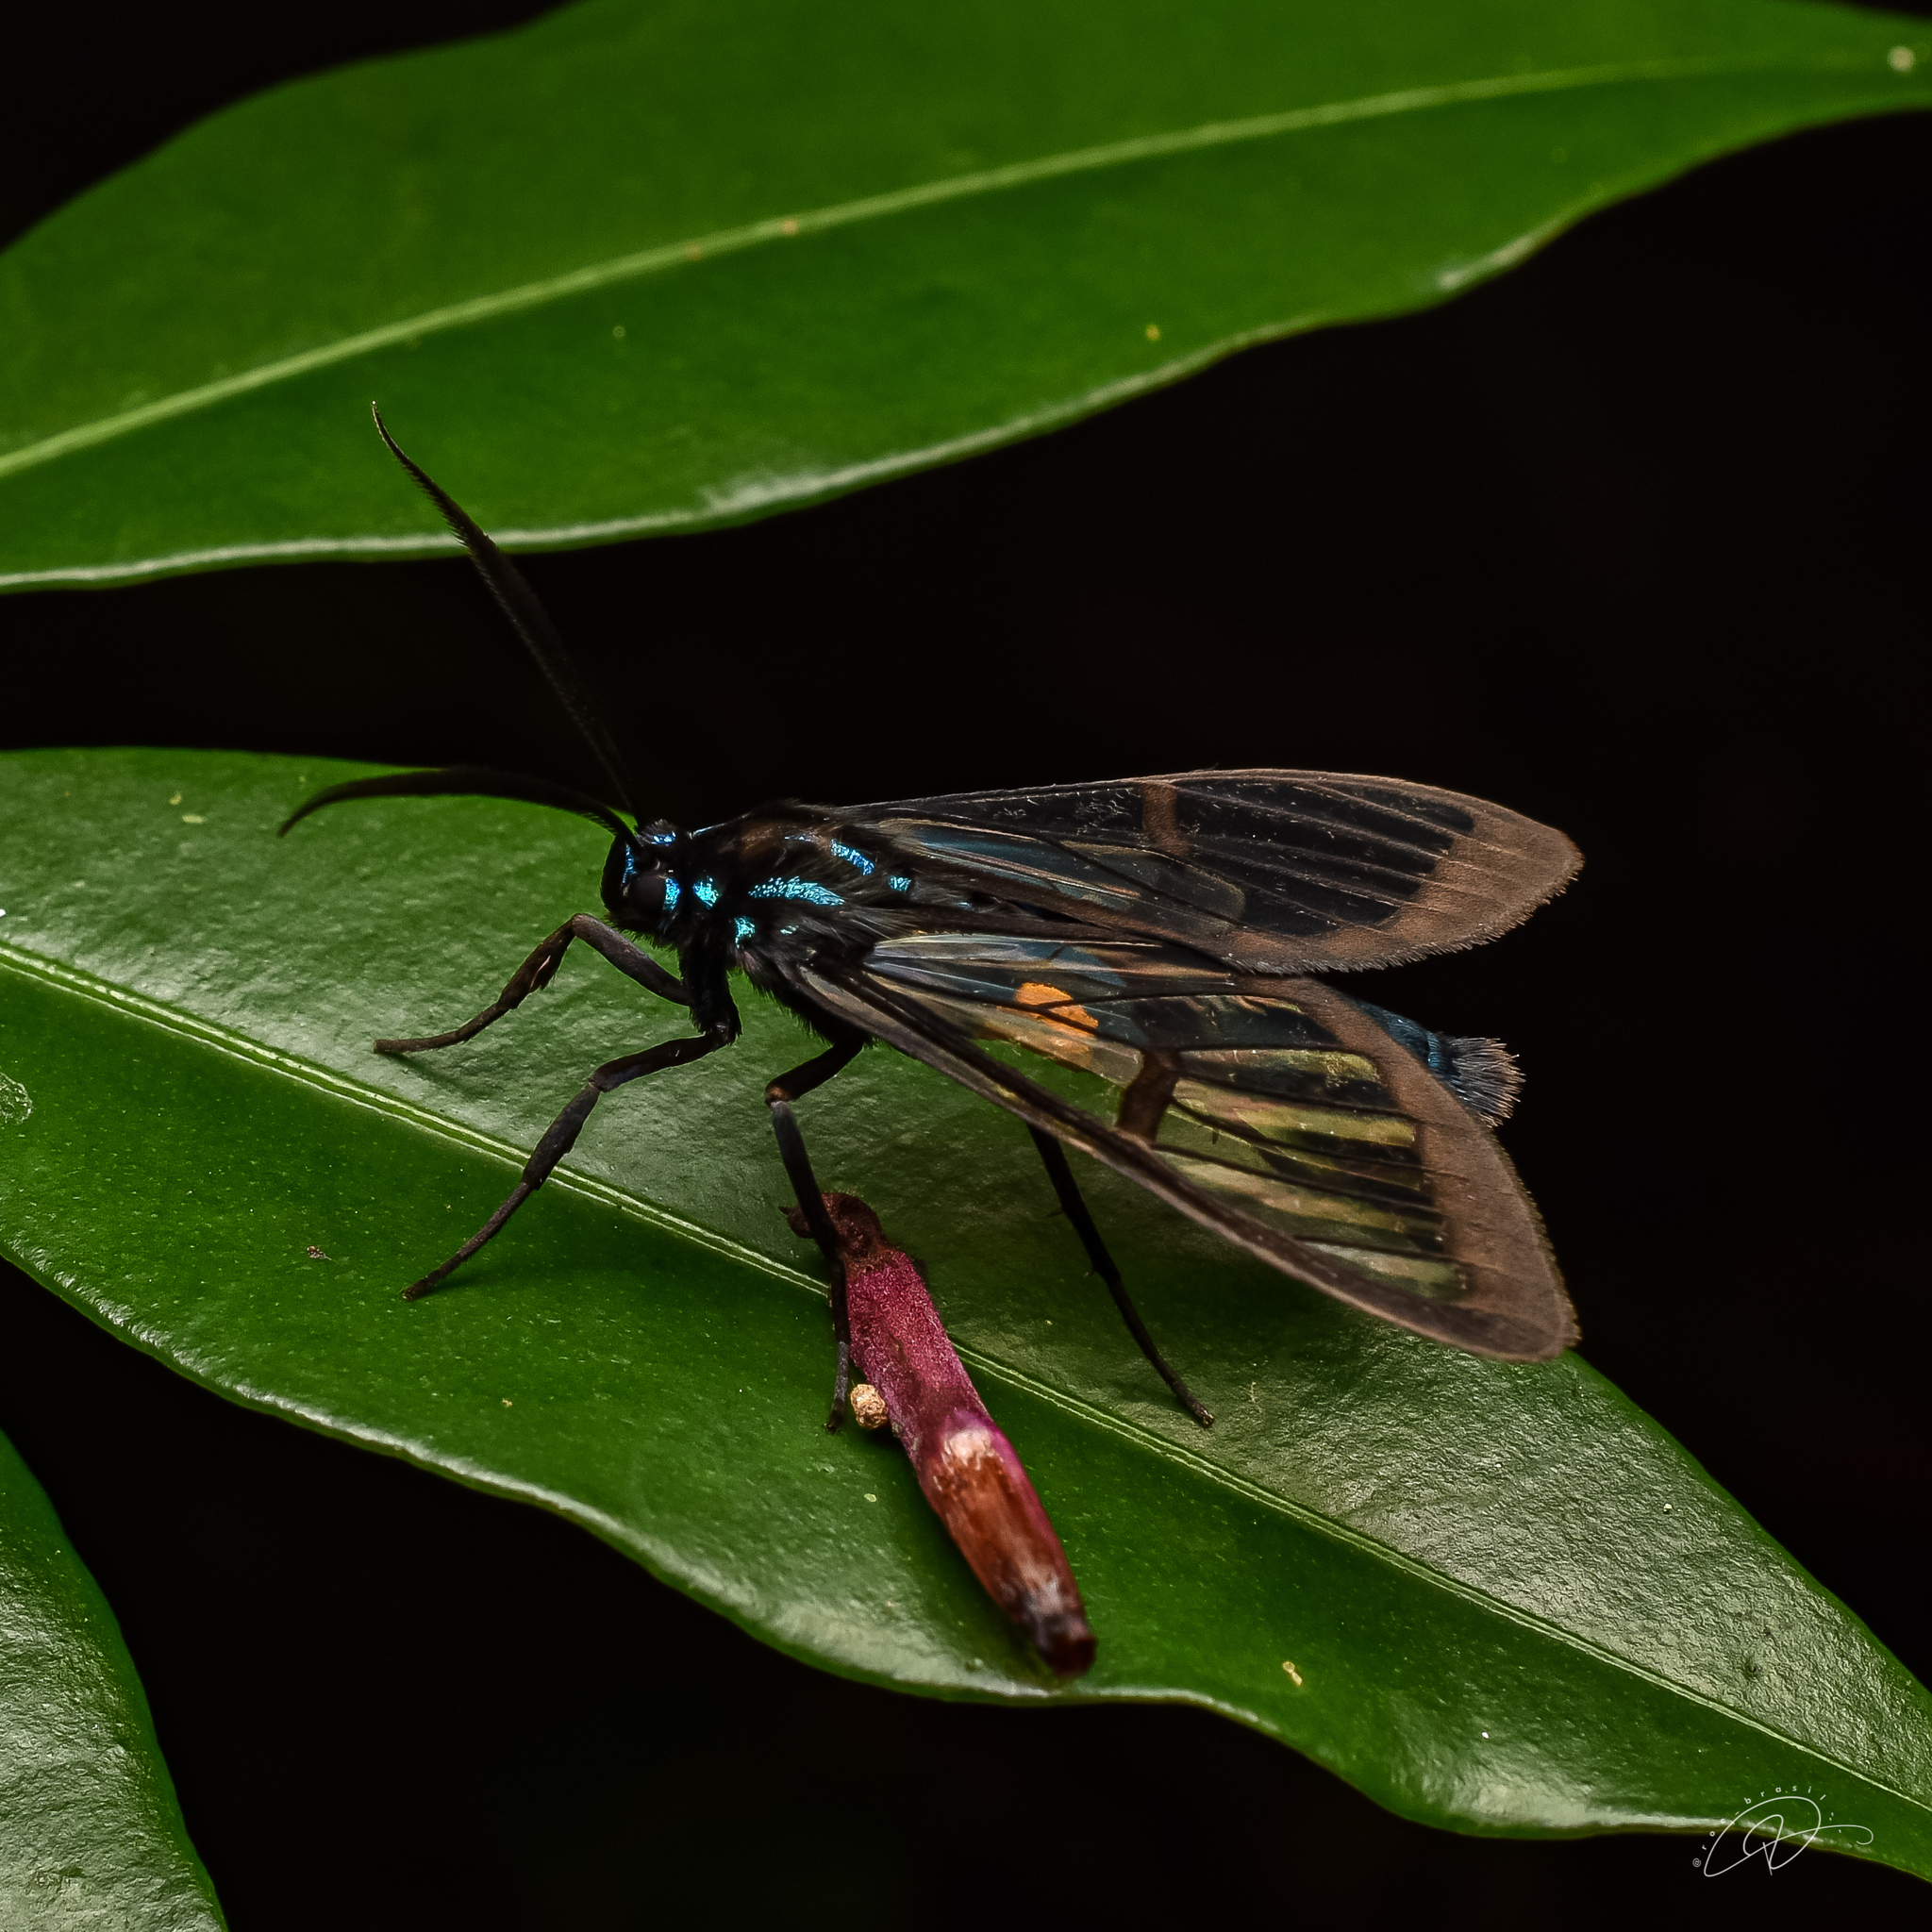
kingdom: Animalia
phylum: Arthropoda
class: Insecta
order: Lepidoptera
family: Erebidae
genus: Trichura
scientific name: Trichura dixanthia
